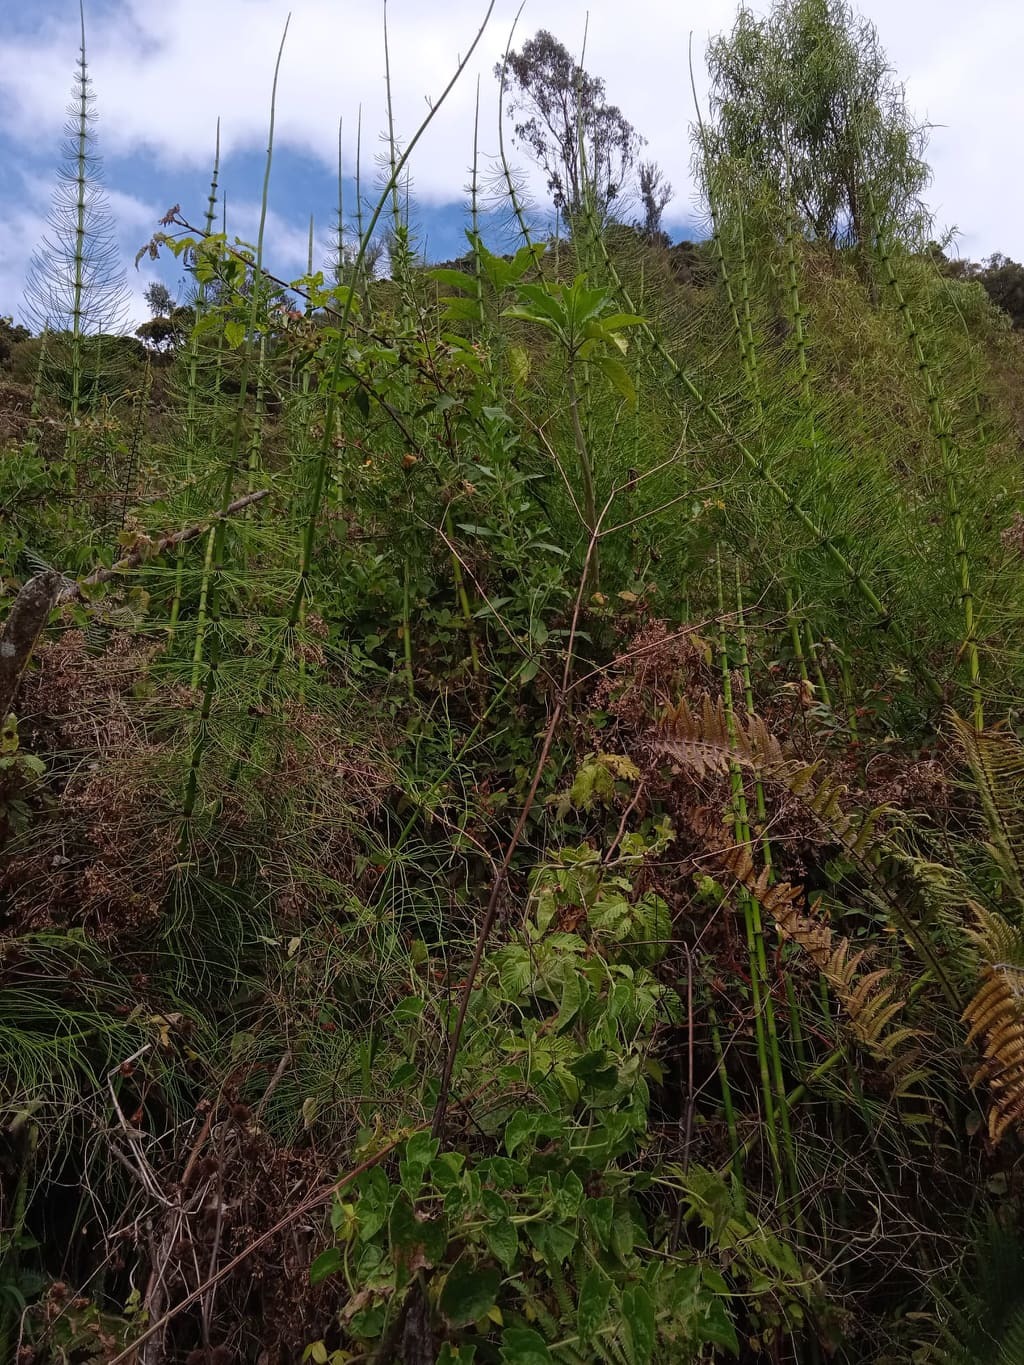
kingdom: Plantae
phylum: Tracheophyta
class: Polypodiopsida
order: Equisetales
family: Equisetaceae
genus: Equisetum
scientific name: Equisetum giganteum
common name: Giant horsetail
